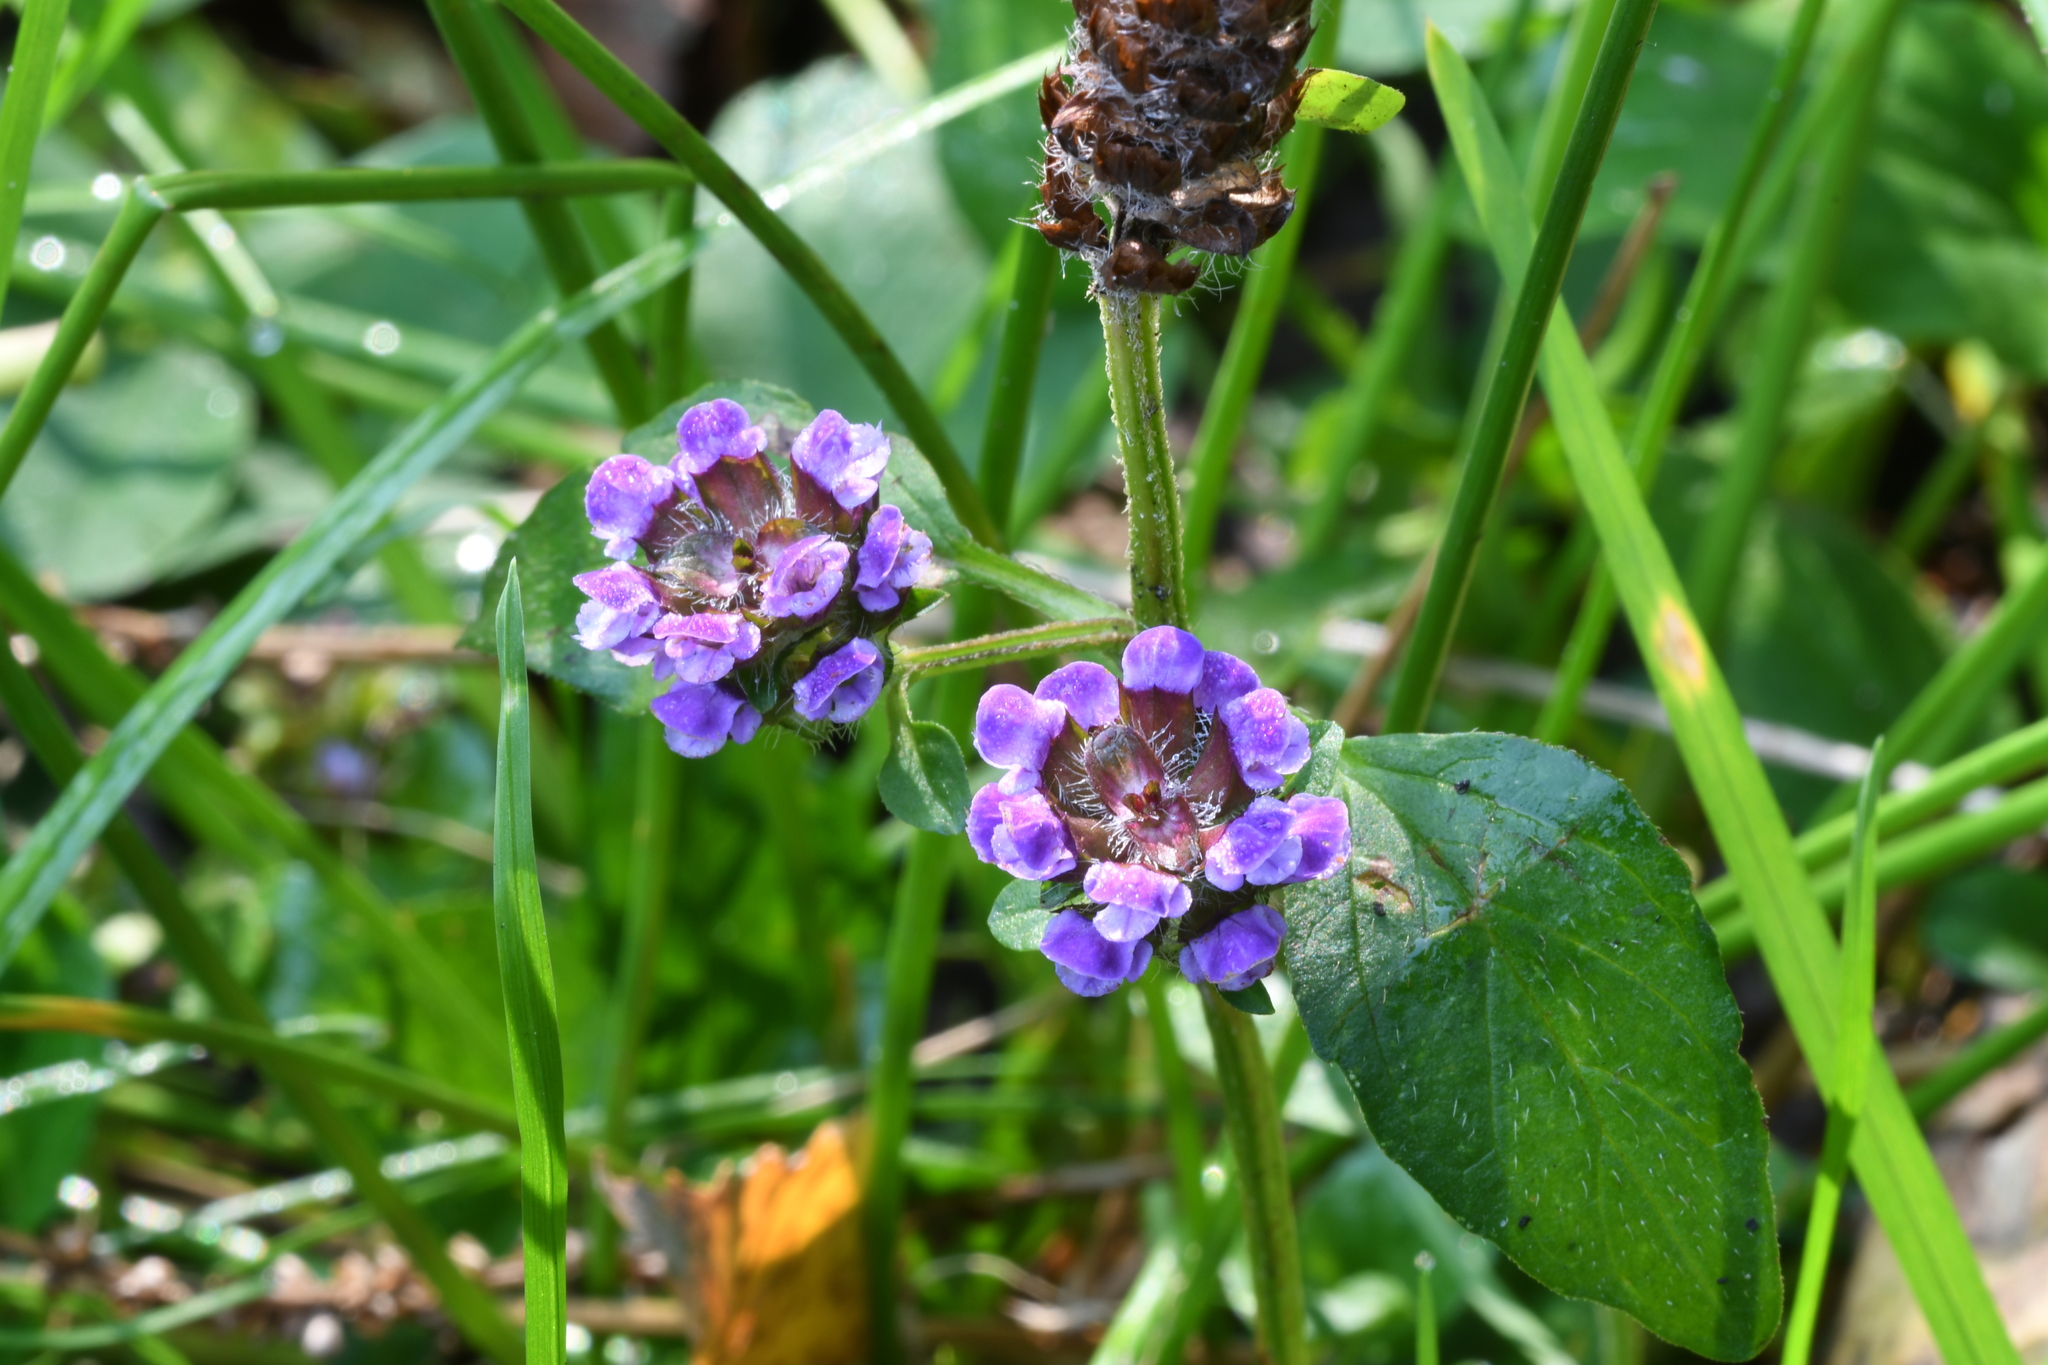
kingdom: Plantae
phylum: Tracheophyta
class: Magnoliopsida
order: Lamiales
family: Lamiaceae
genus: Prunella
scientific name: Prunella vulgaris
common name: Heal-all
